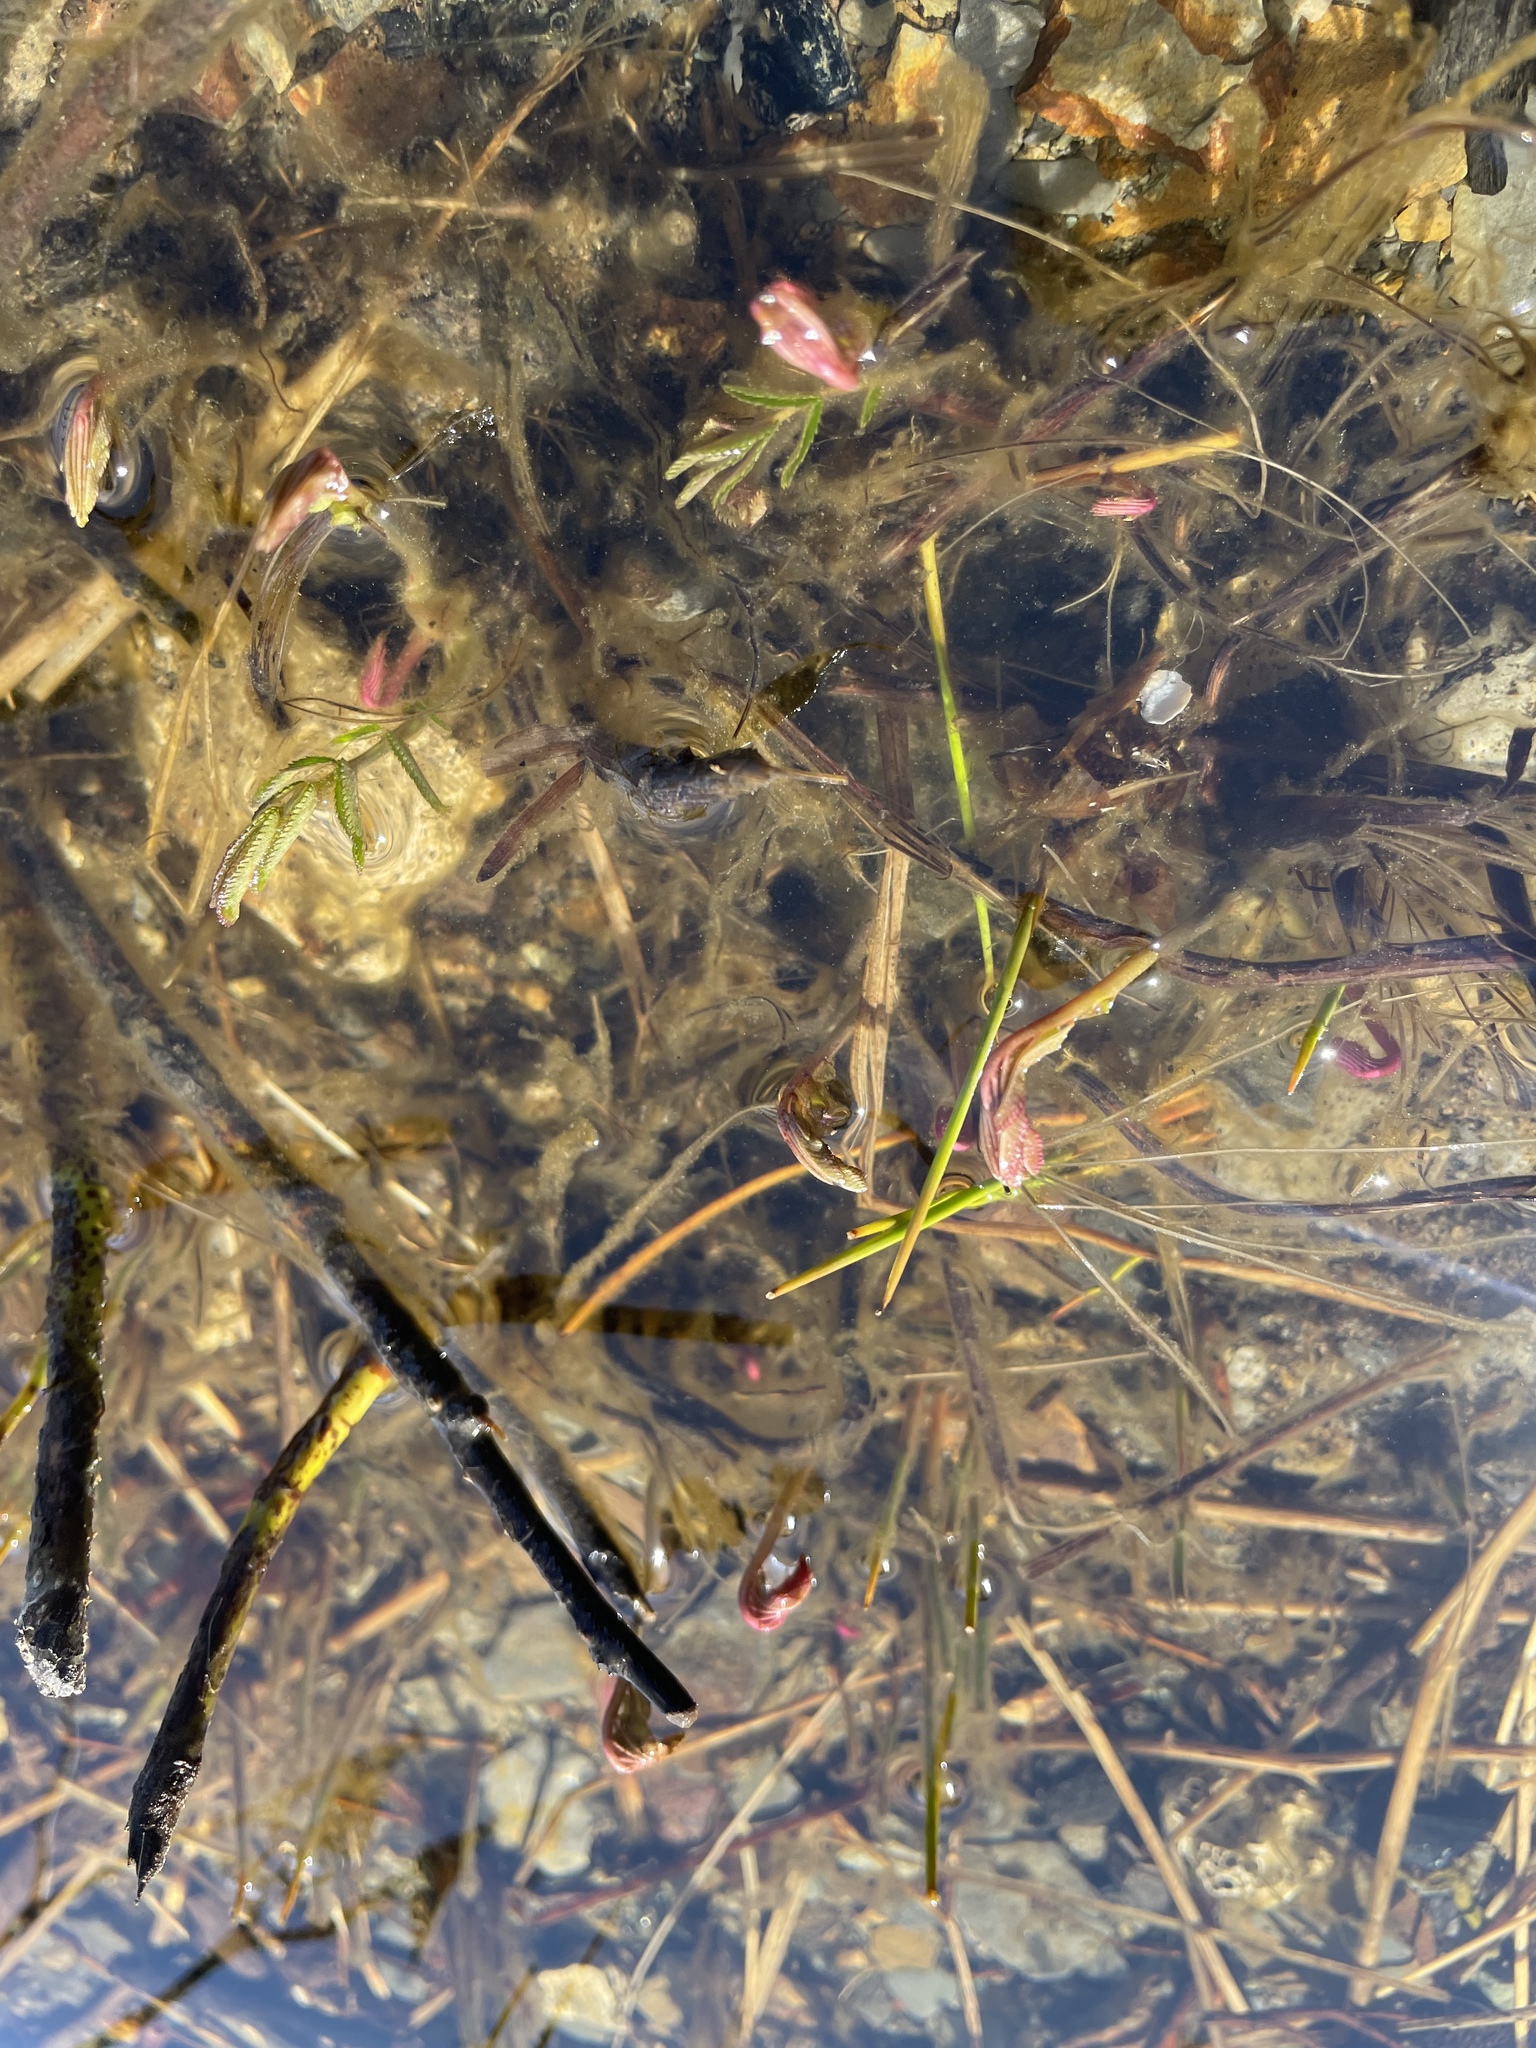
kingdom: Plantae
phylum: Tracheophyta
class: Magnoliopsida
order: Apiales
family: Apiaceae
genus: Sium
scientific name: Sium suave
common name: Hemlock water-parsnip
